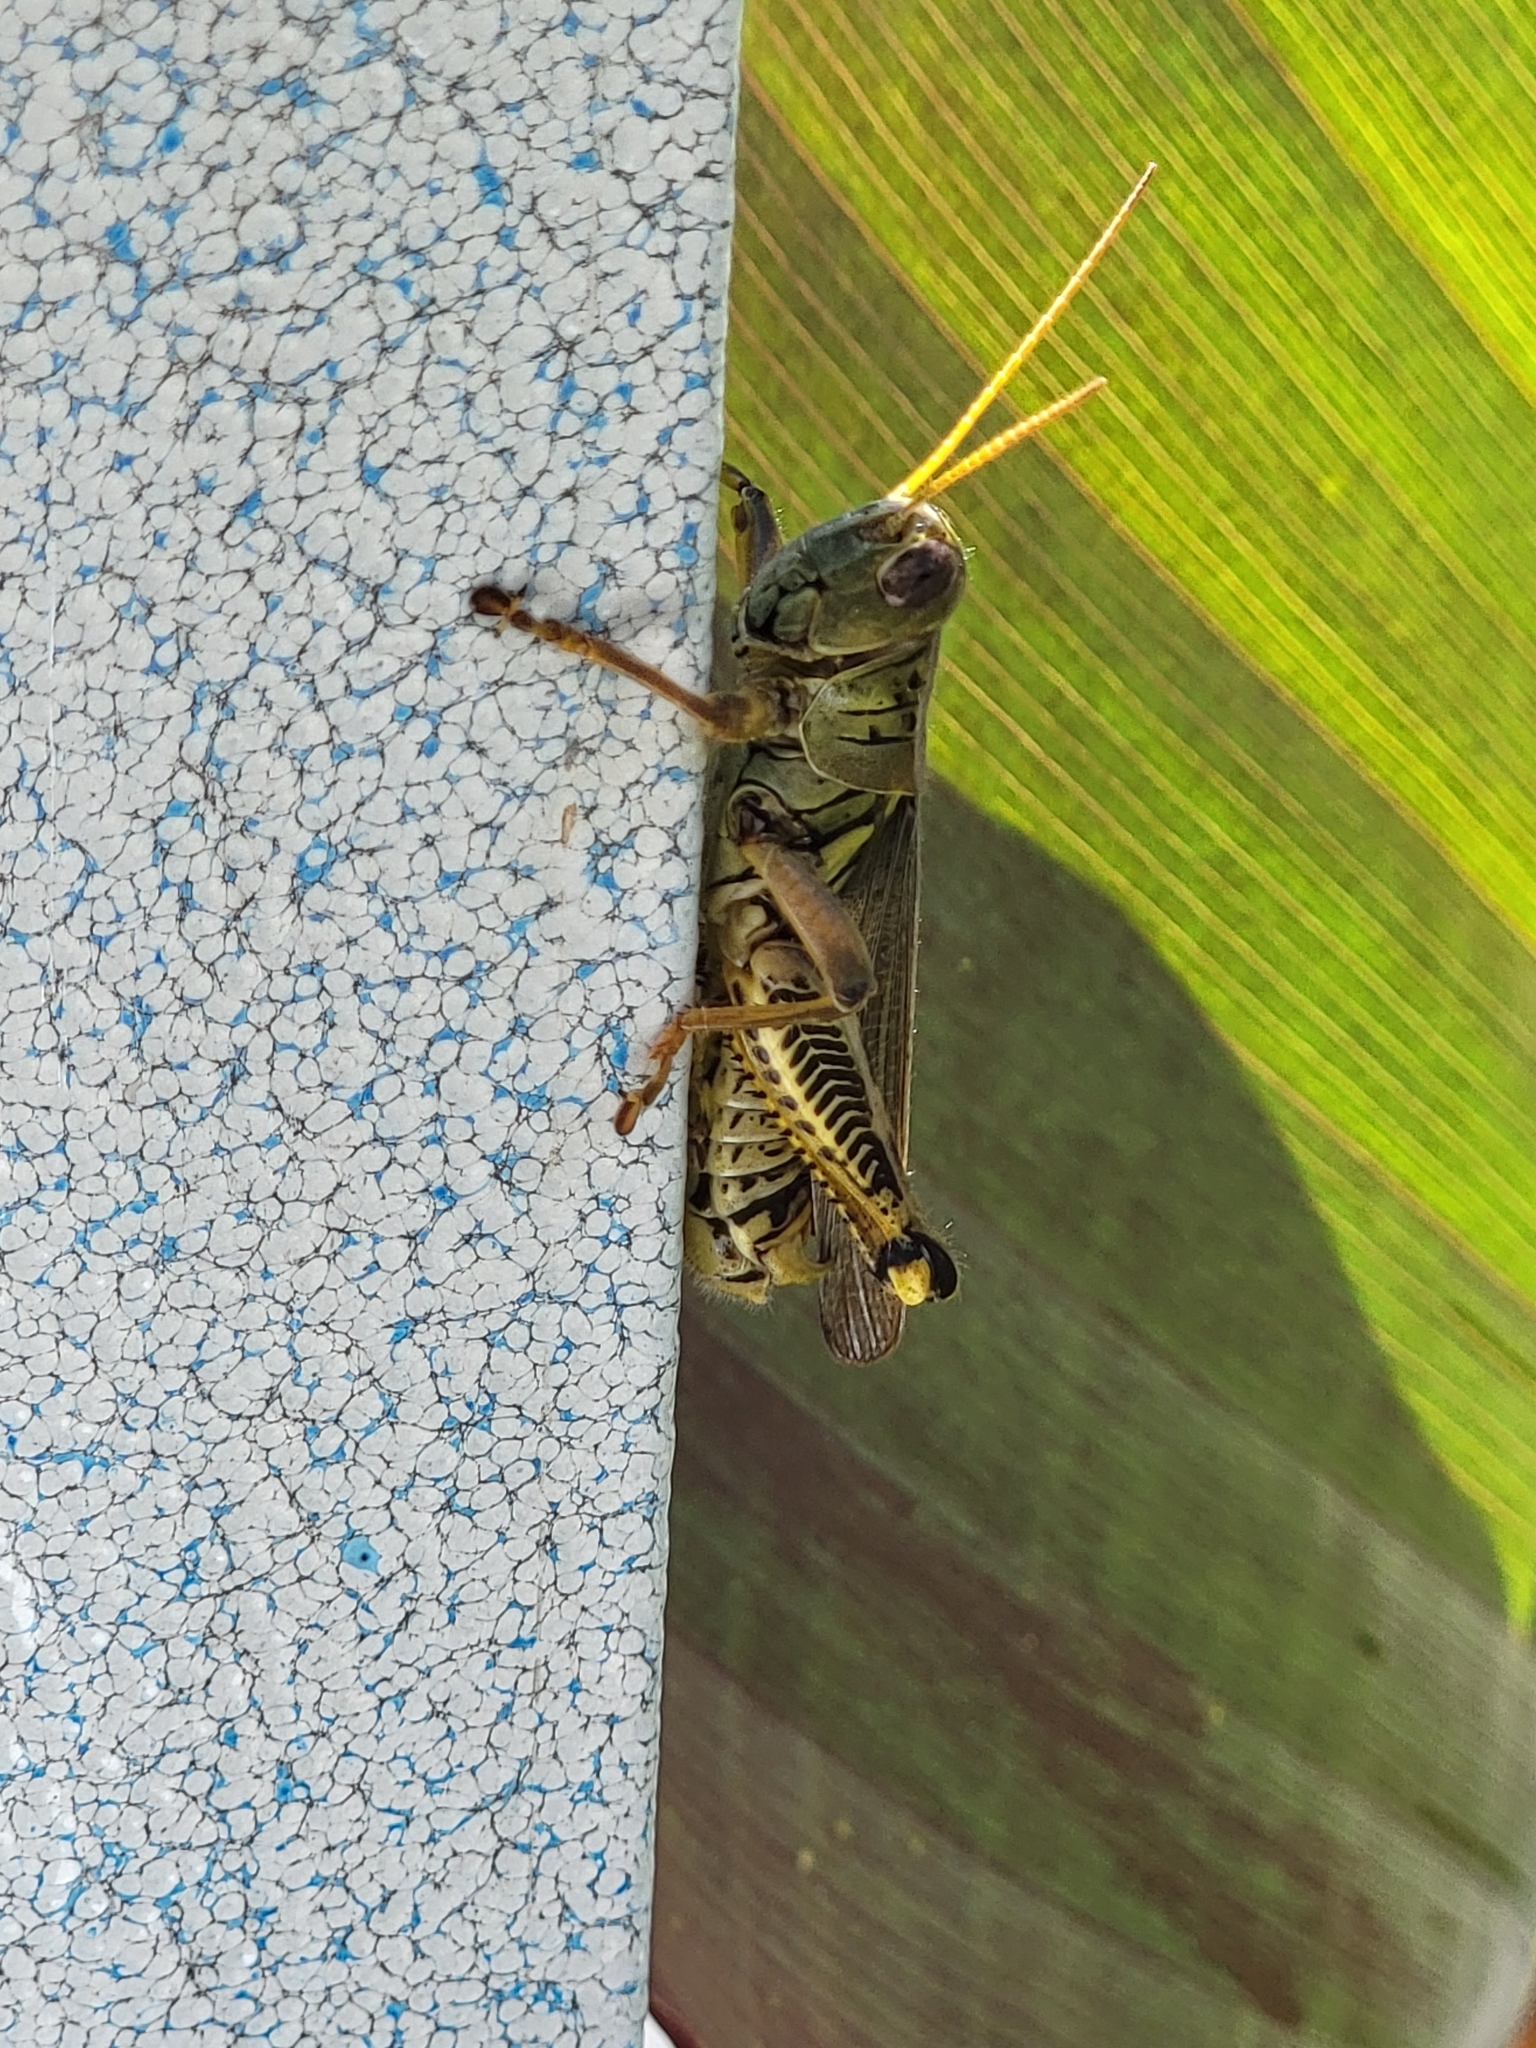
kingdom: Animalia
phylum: Arthropoda
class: Insecta
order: Orthoptera
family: Acrididae
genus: Melanoplus
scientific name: Melanoplus differentialis
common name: Differential grasshopper
